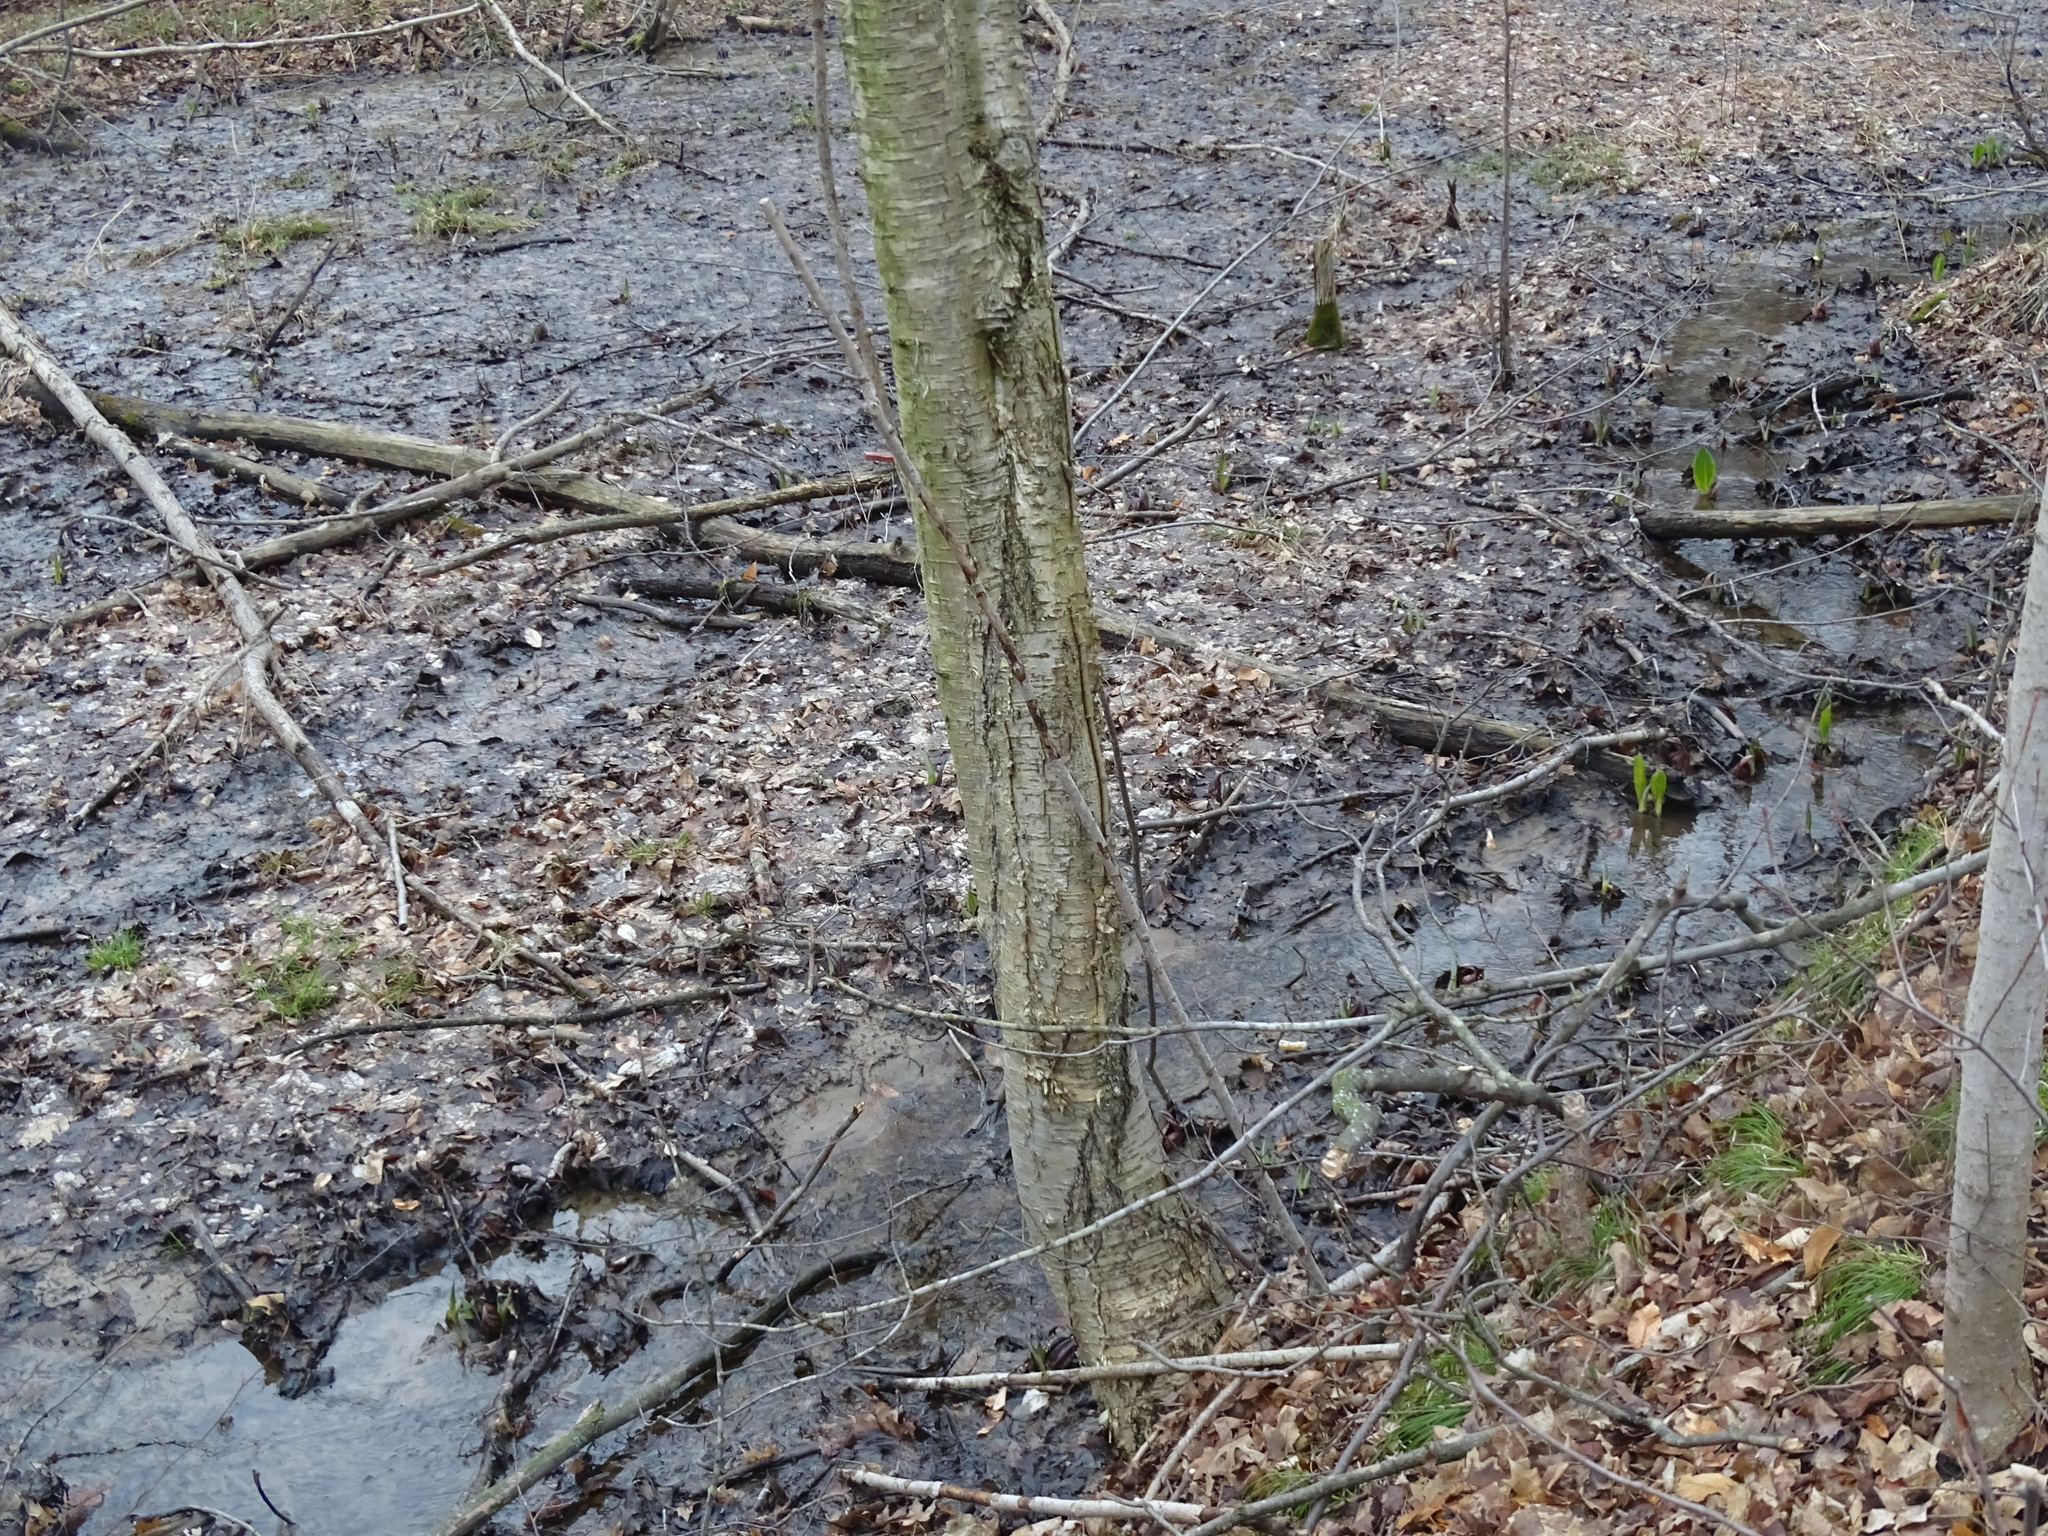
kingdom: Plantae
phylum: Tracheophyta
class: Magnoliopsida
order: Fagales
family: Betulaceae
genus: Betula
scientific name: Betula alleghaniensis
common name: Yellow birch
